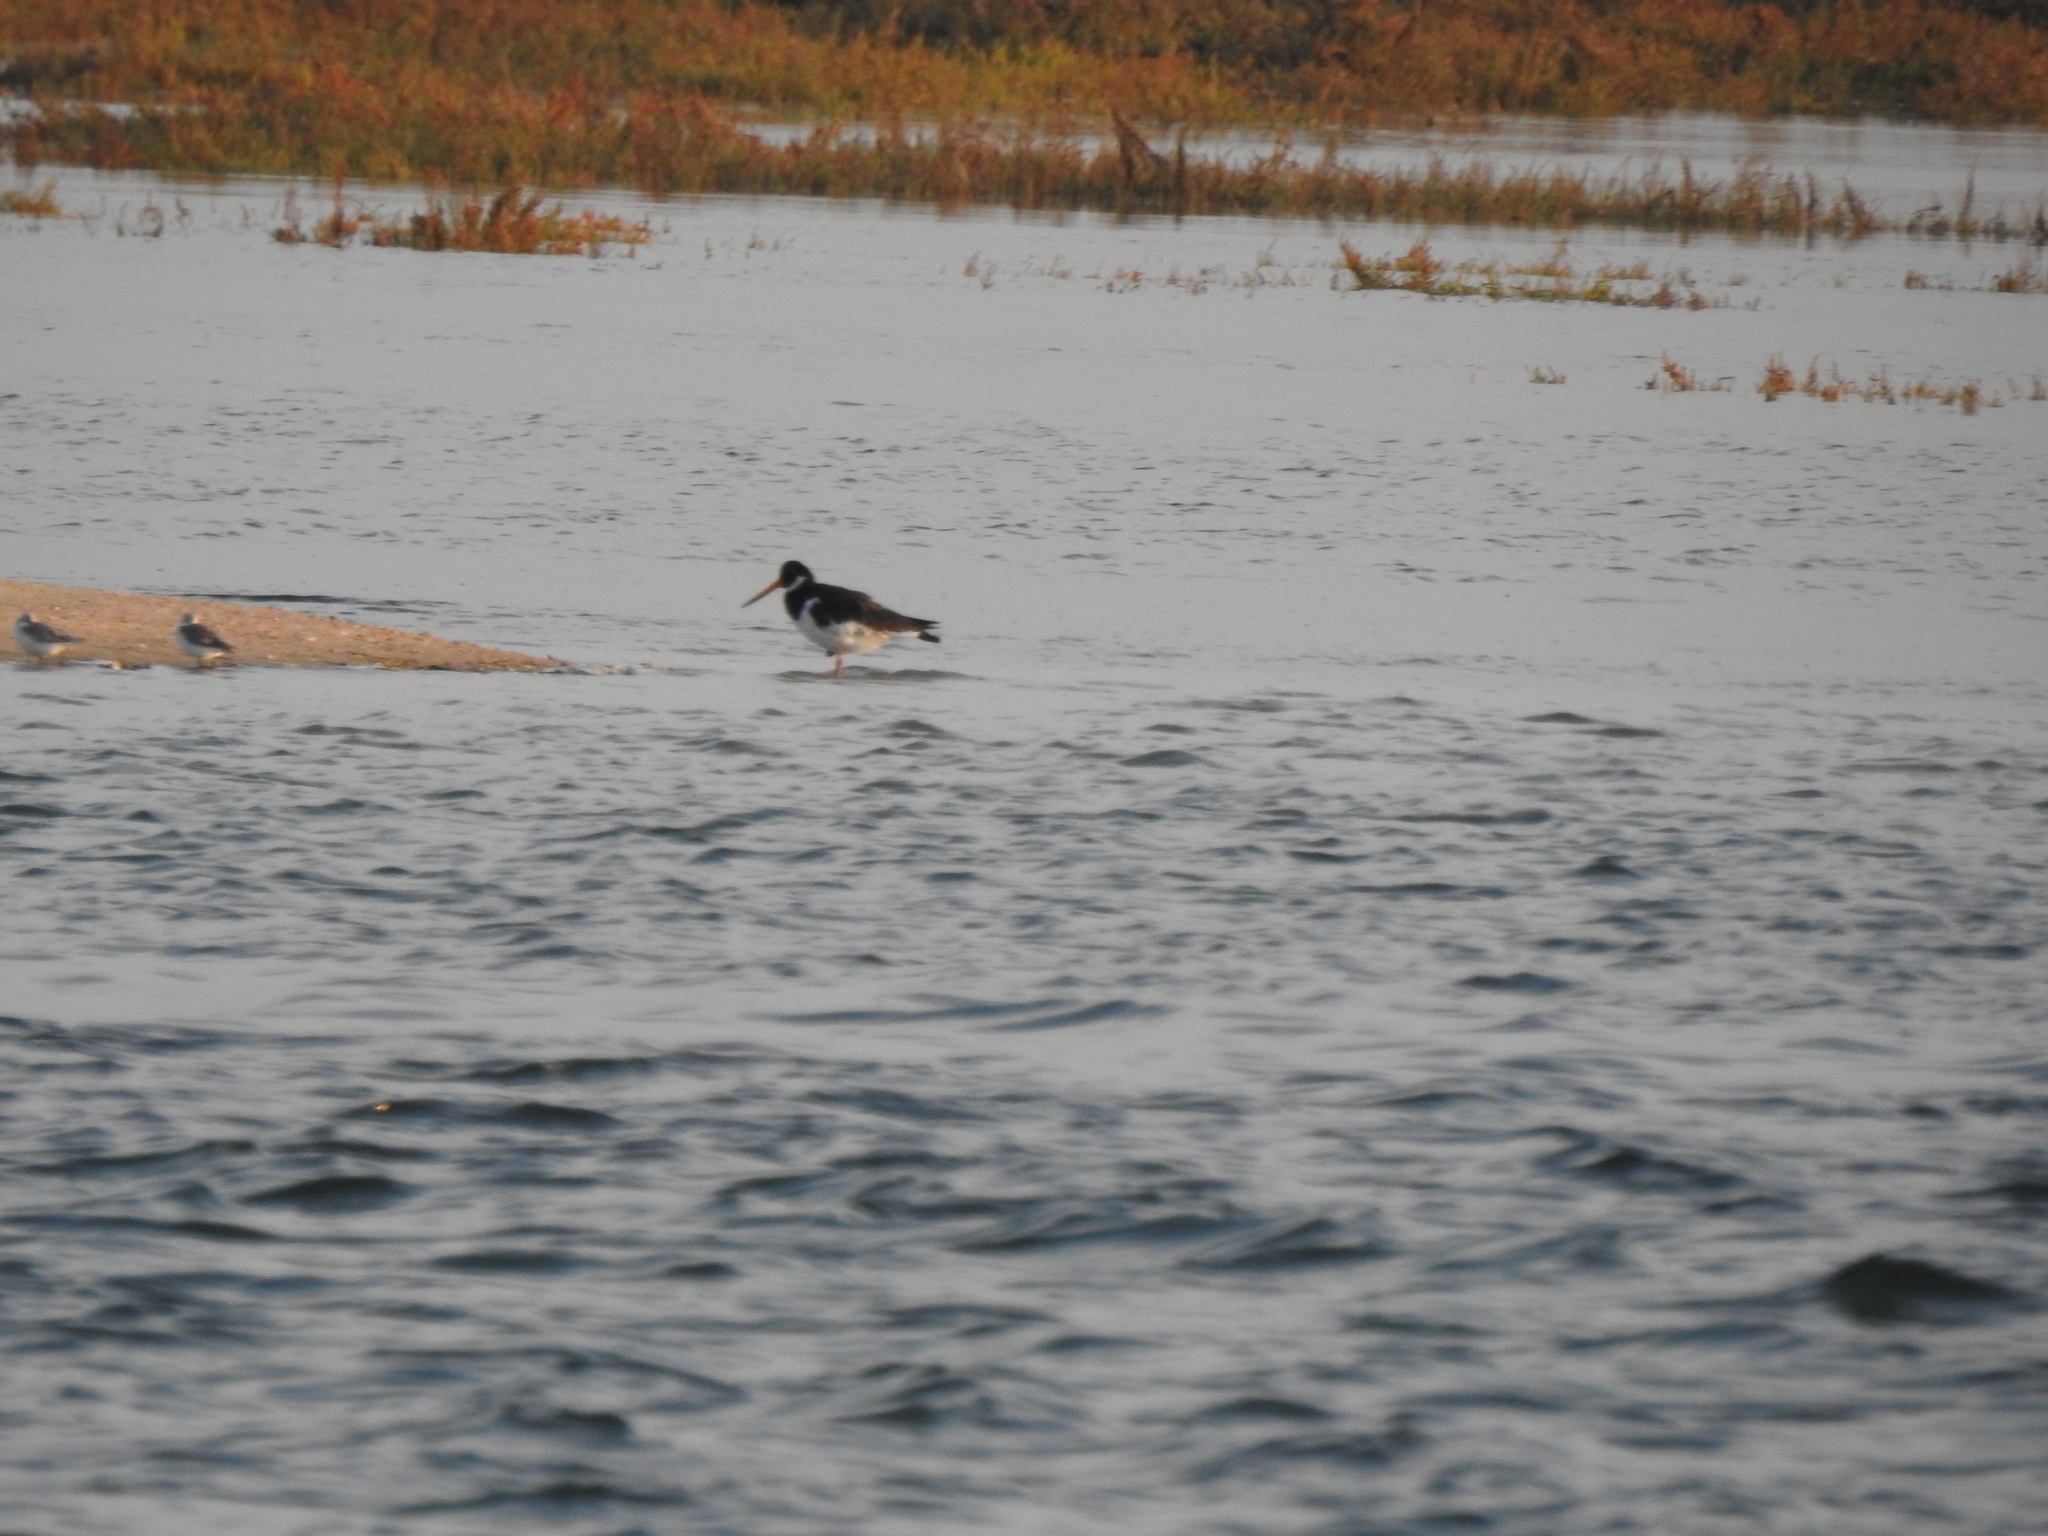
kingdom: Animalia
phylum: Chordata
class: Aves
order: Charadriiformes
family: Haematopodidae
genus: Haematopus
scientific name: Haematopus ostralegus
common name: Eurasian oystercatcher
